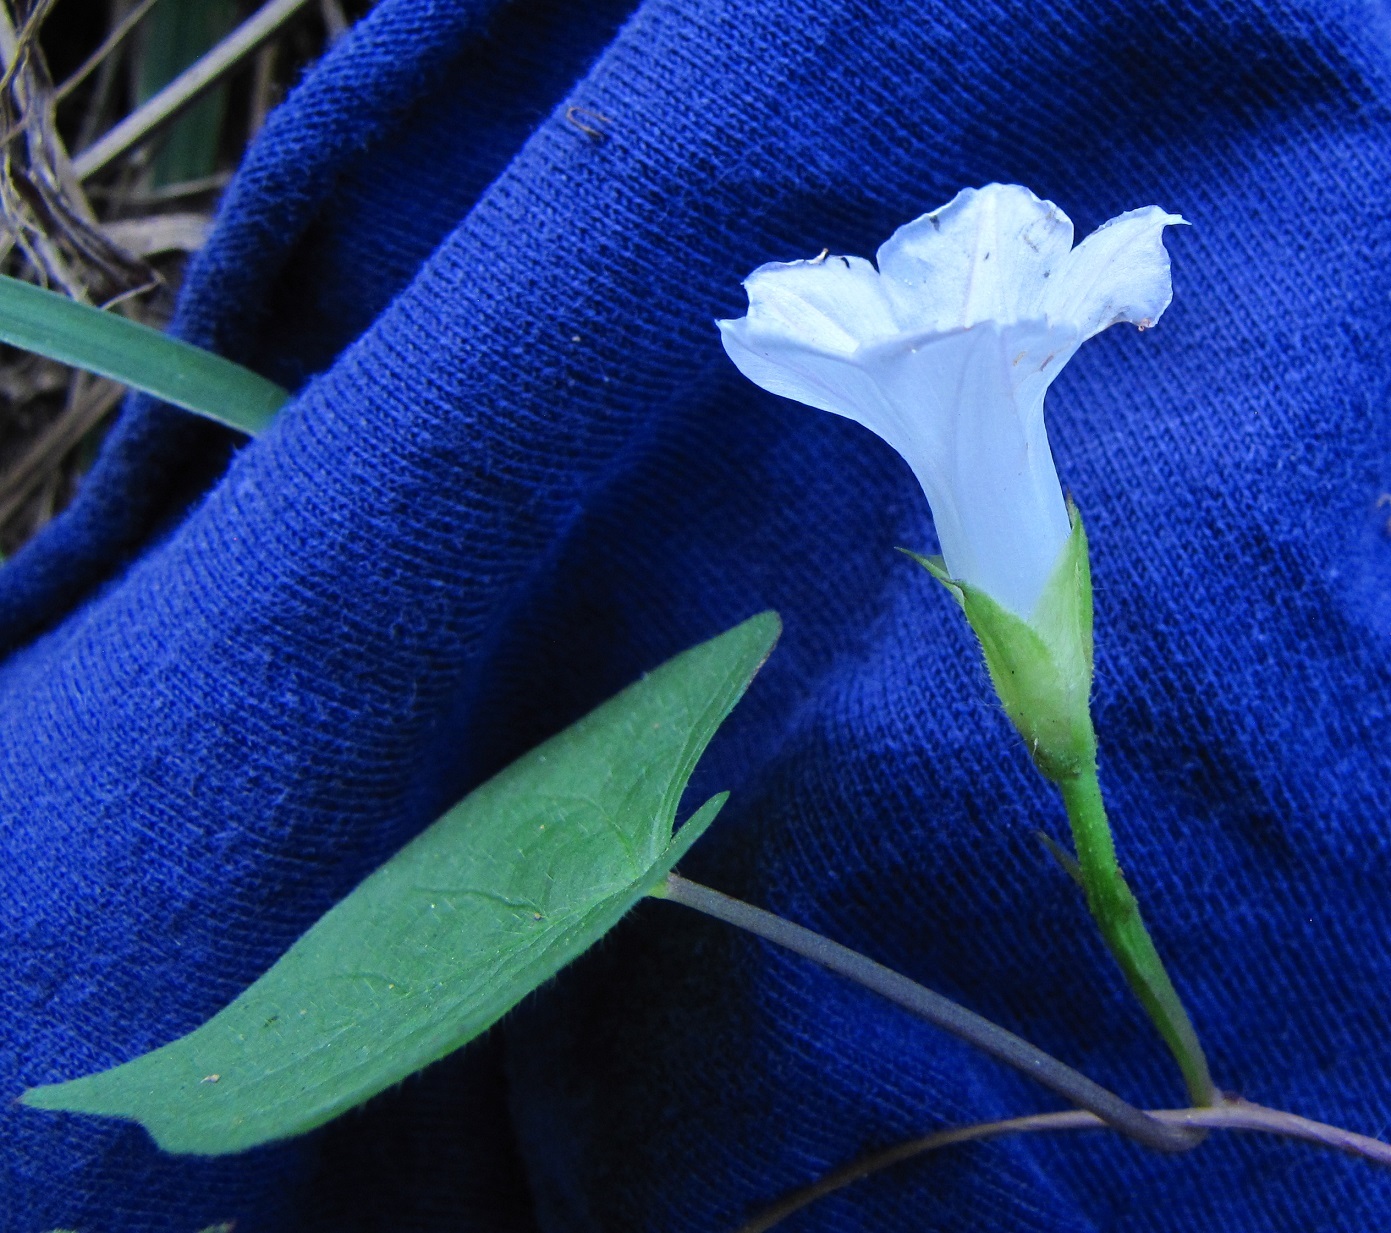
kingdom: Plantae
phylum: Tracheophyta
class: Magnoliopsida
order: Solanales
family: Convolvulaceae
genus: Ipomoea
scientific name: Ipomoea lacunosa
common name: White morning-glory
